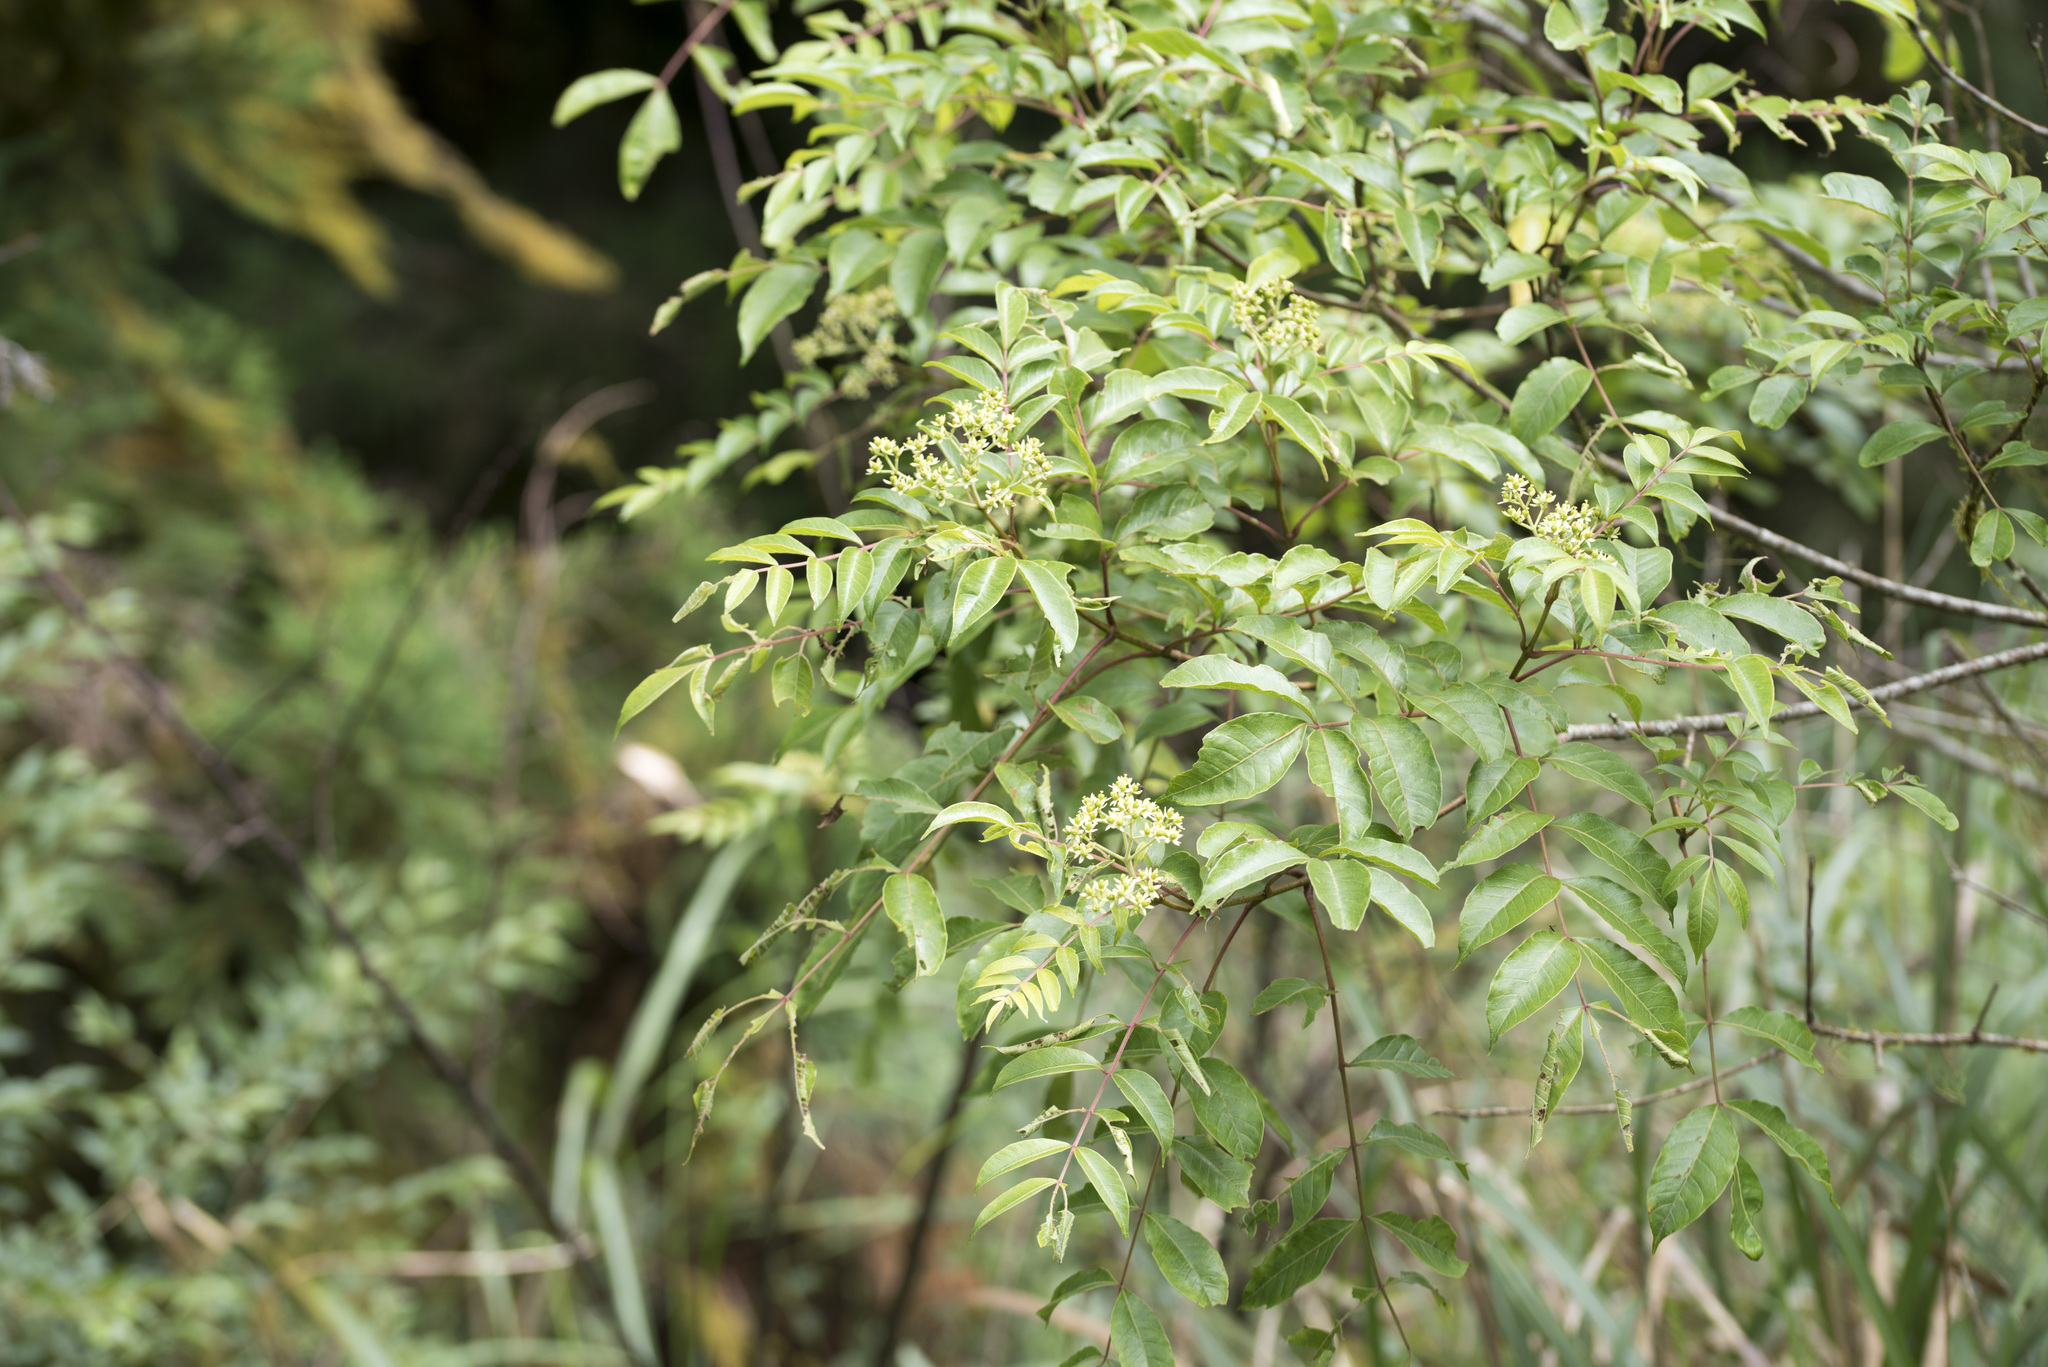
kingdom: Plantae
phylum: Tracheophyta
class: Magnoliopsida
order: Sapindales
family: Rutaceae
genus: Tetradium
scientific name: Tetradium ruticarpum
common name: Evodia
